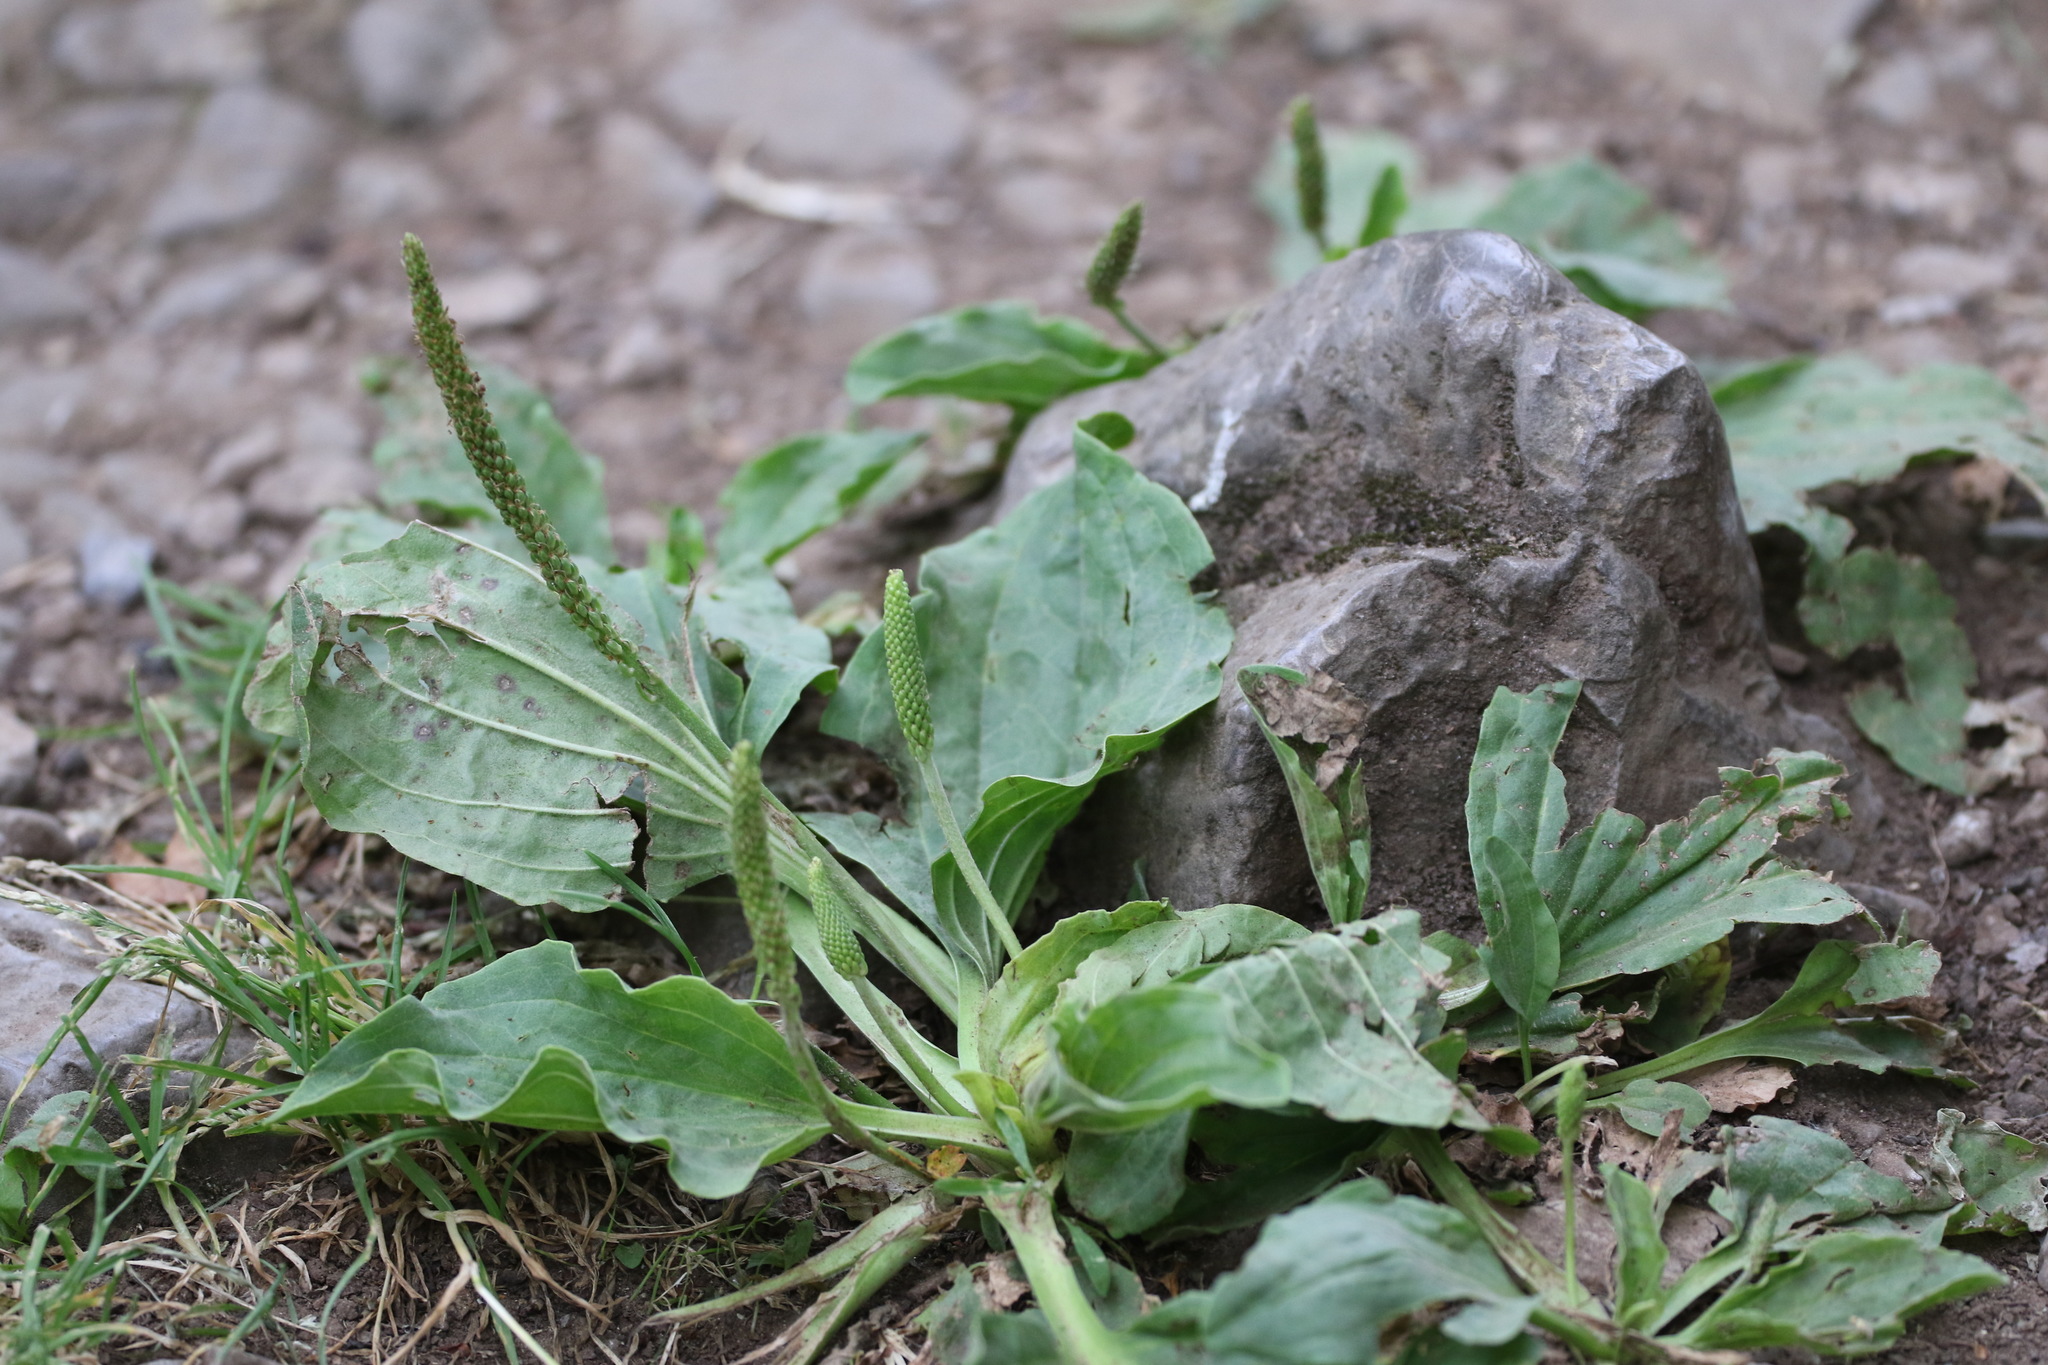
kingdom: Plantae
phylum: Tracheophyta
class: Magnoliopsida
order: Lamiales
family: Plantaginaceae
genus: Plantago
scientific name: Plantago major
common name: Common plantain
